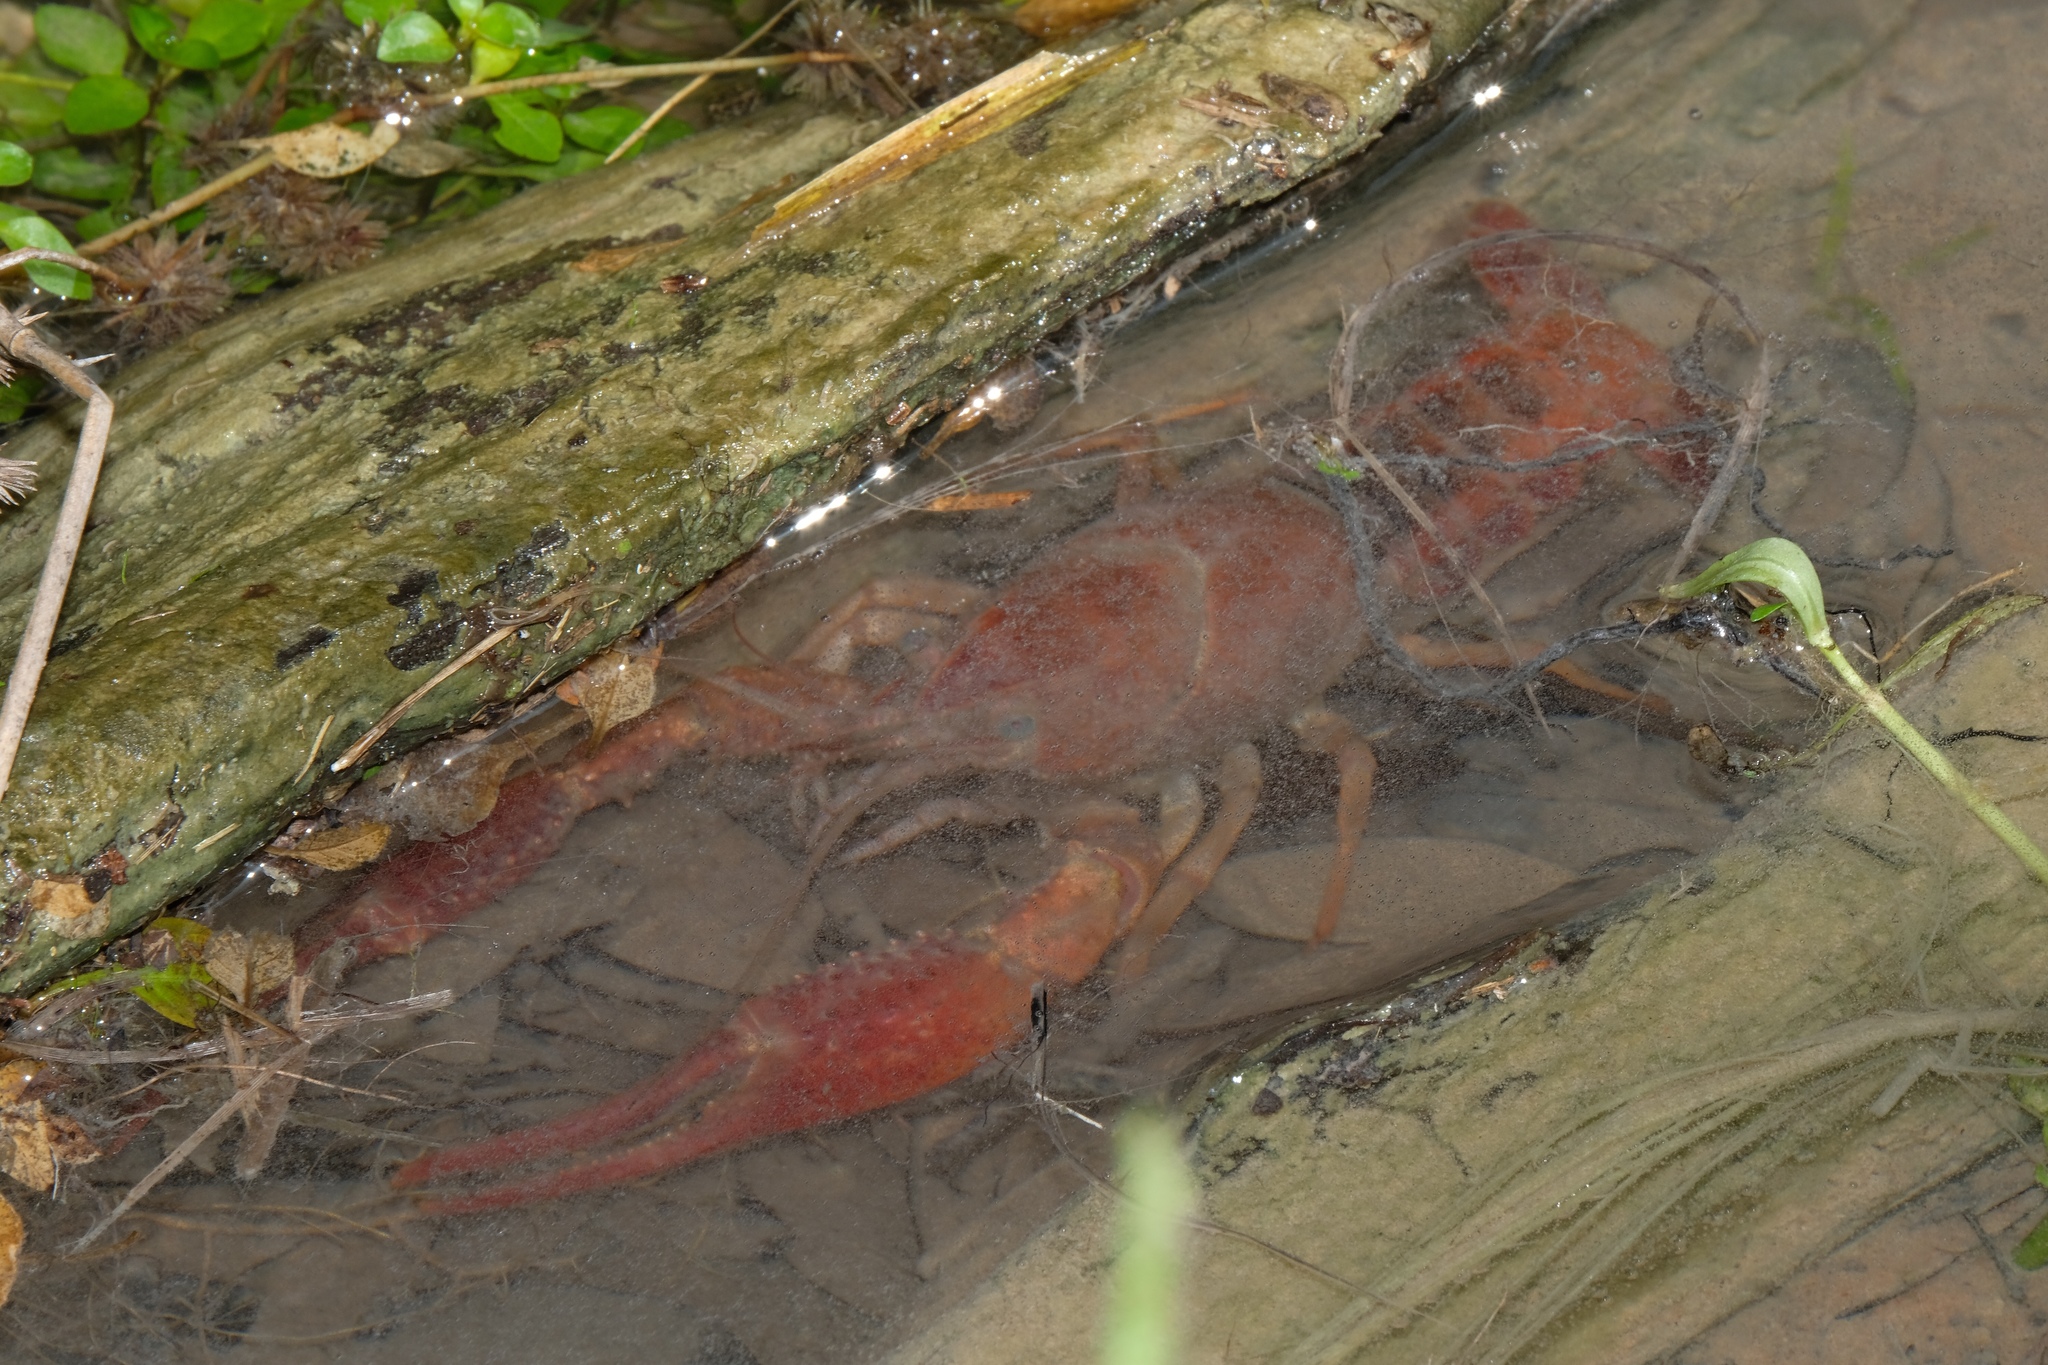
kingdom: Animalia
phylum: Arthropoda
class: Malacostraca
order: Decapoda
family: Cambaridae
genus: Procambarus
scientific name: Procambarus albaughi
